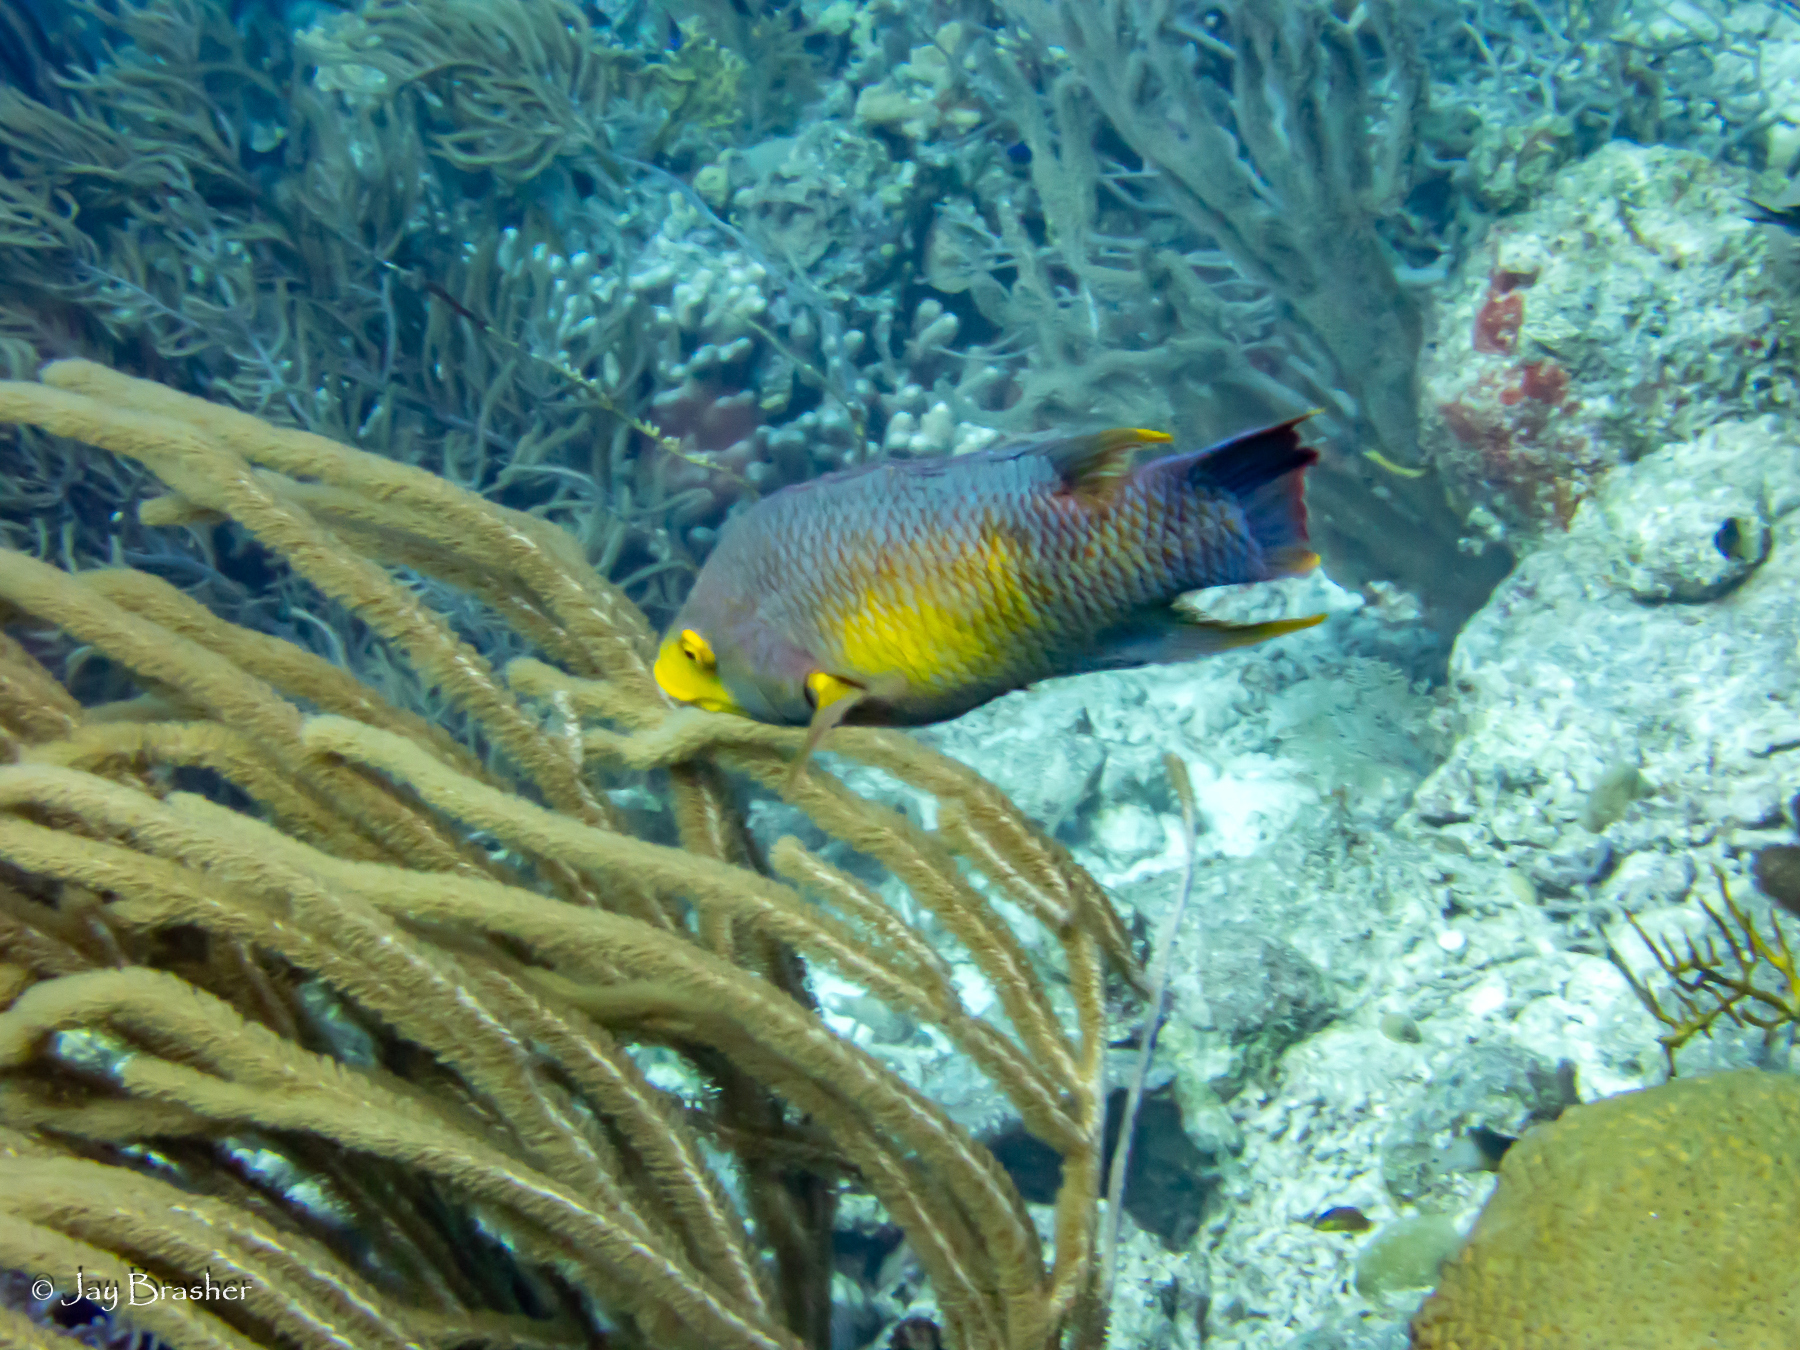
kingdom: Animalia
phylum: Chordata
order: Perciformes
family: Labridae
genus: Bodianus
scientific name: Bodianus rufus
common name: Spanish hogfish
